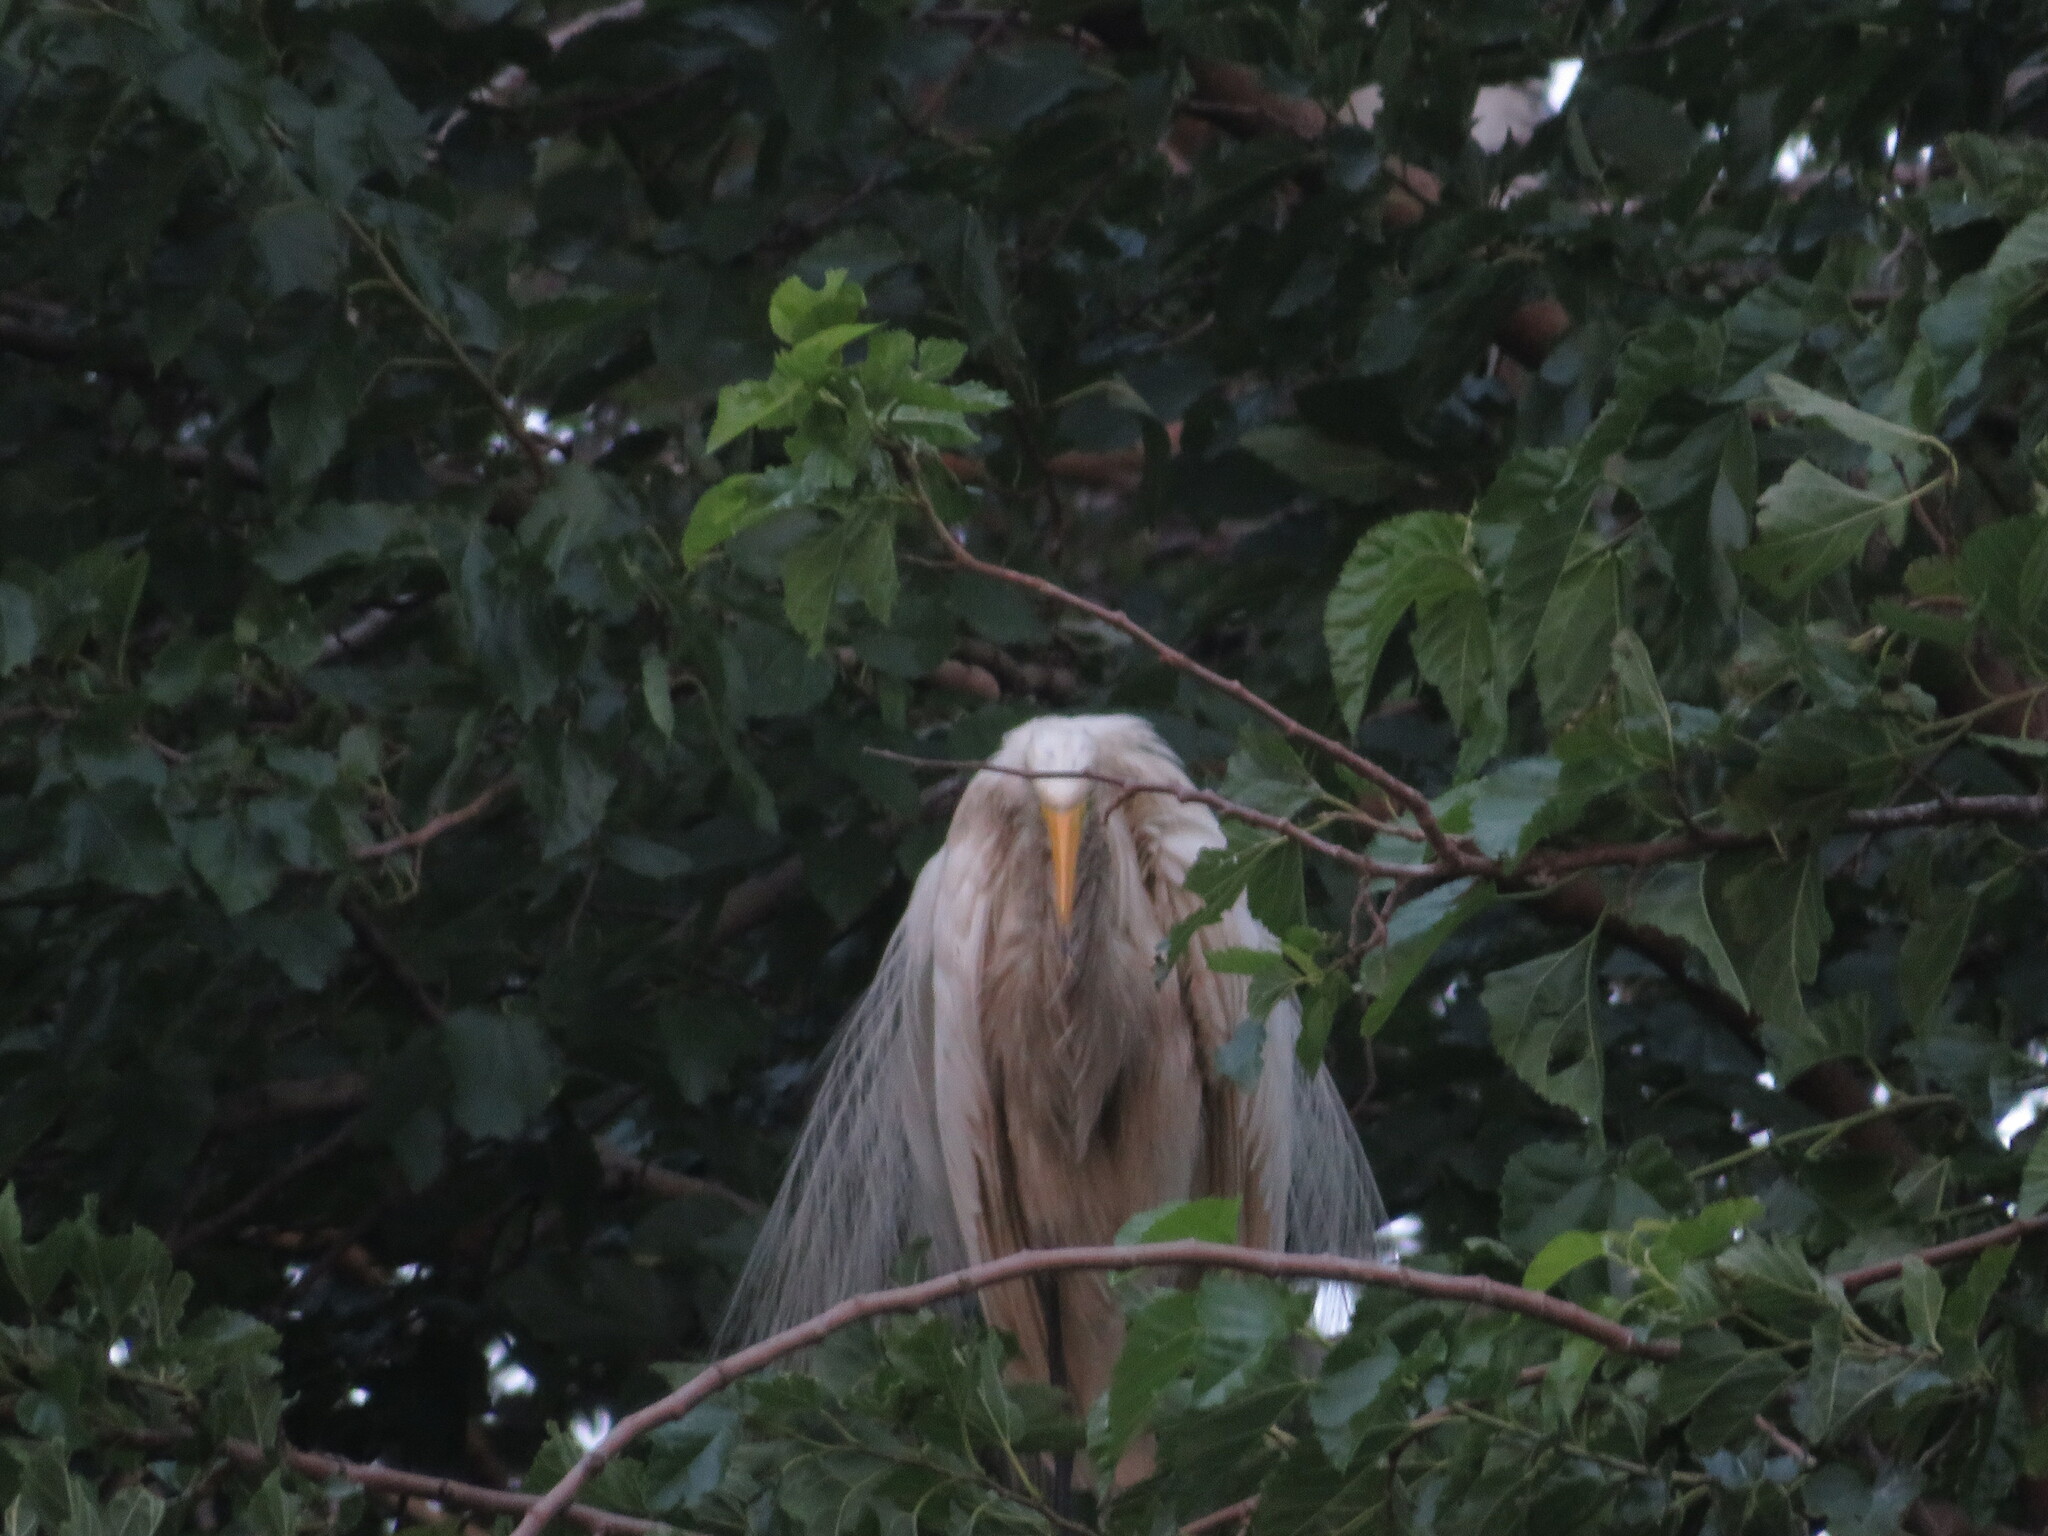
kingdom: Animalia
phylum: Chordata
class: Aves
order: Pelecaniformes
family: Ardeidae
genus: Ardea
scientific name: Ardea alba
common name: Great egret
